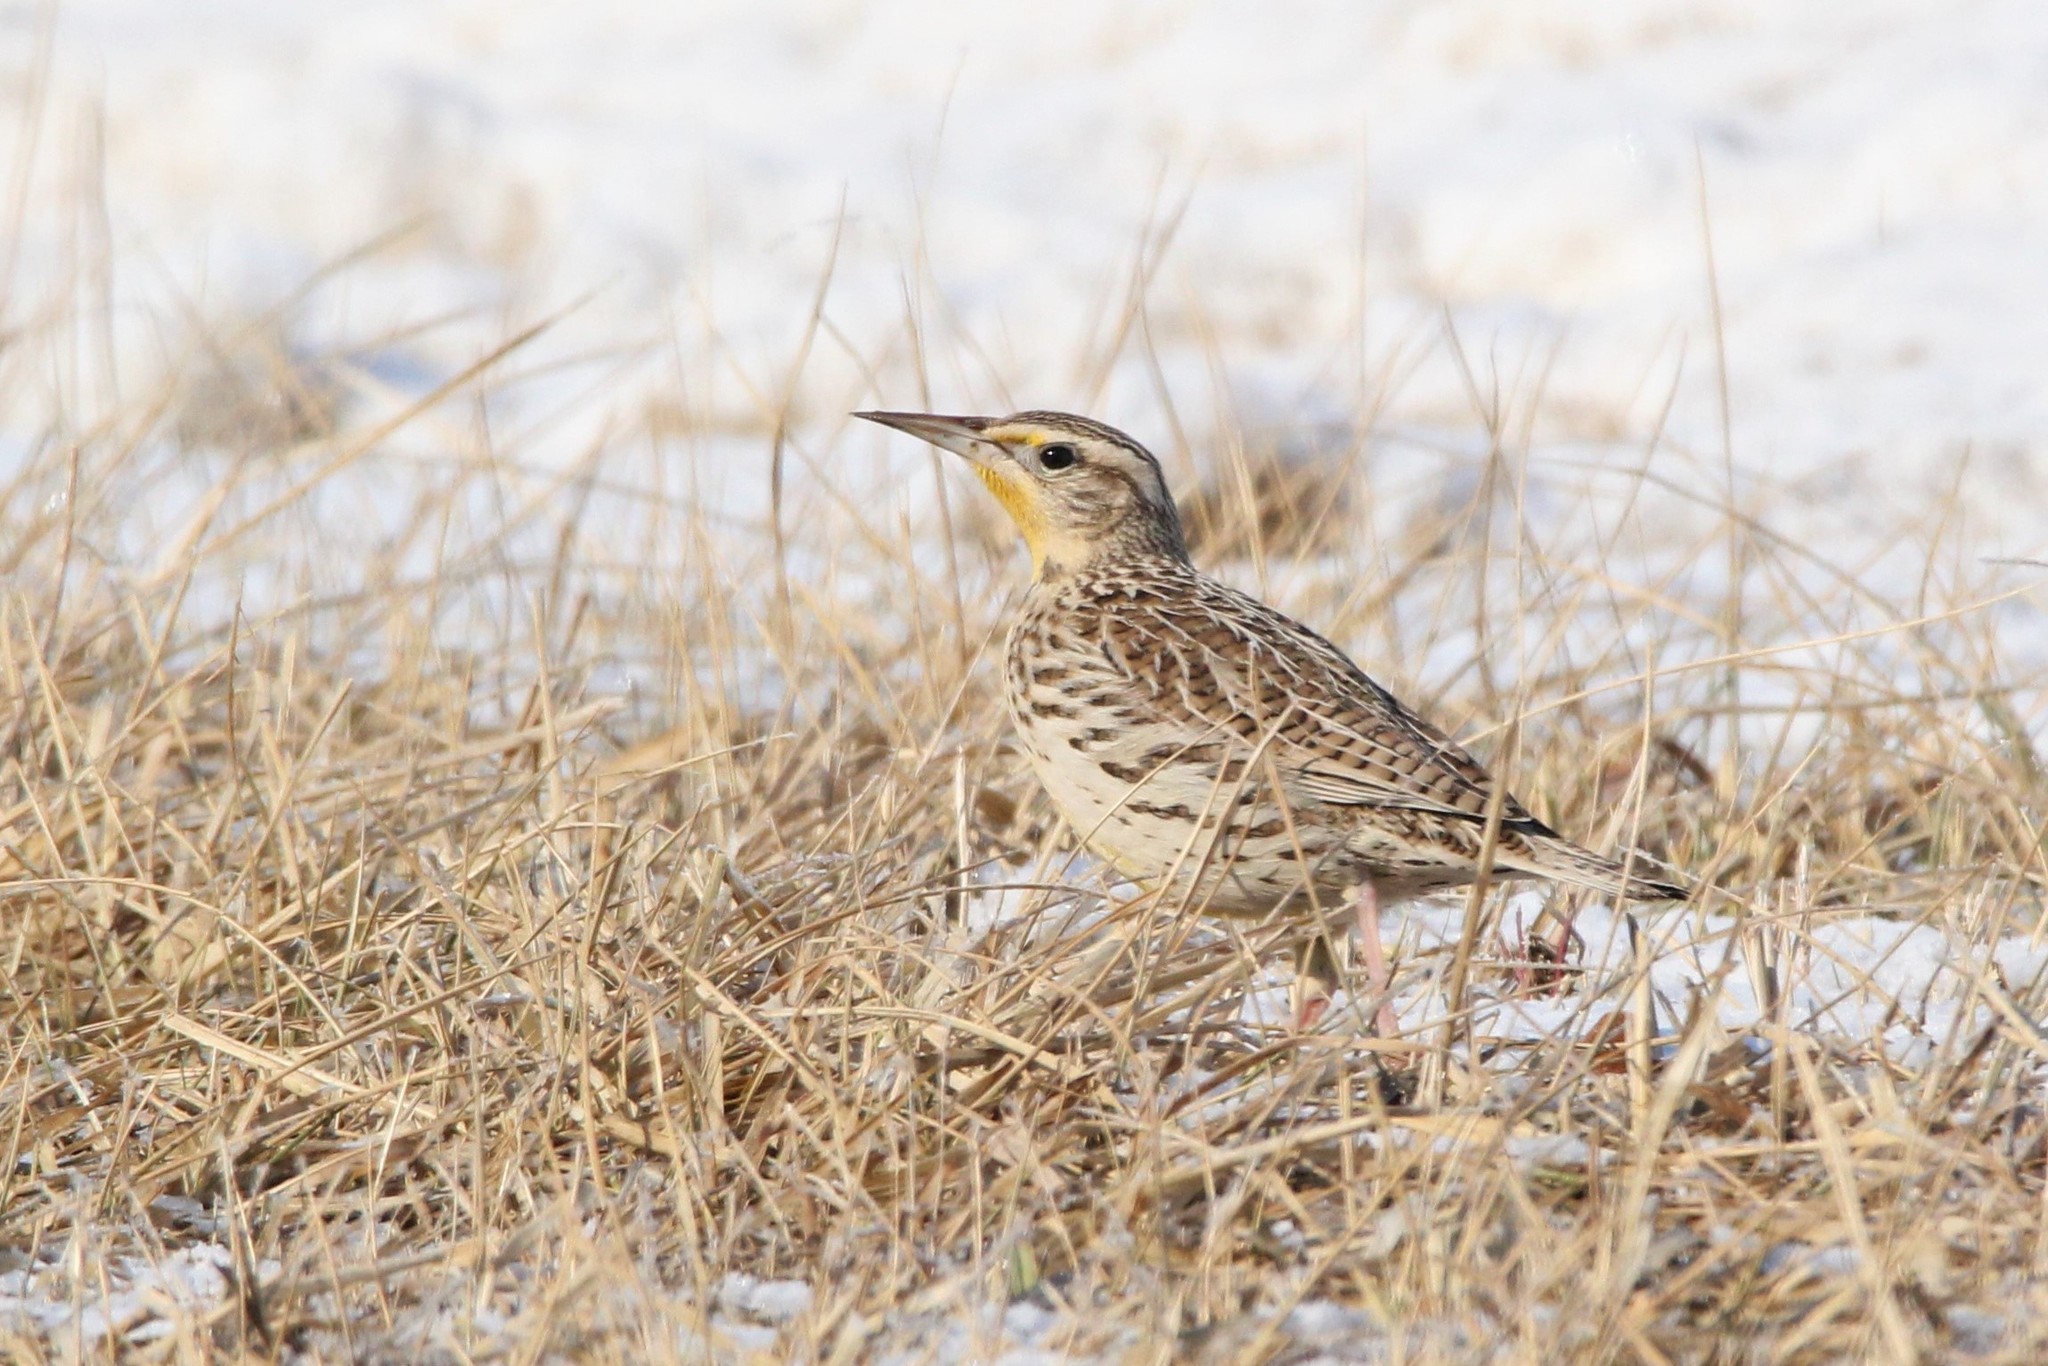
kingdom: Animalia
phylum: Chordata
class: Aves
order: Passeriformes
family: Icteridae
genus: Sturnella
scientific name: Sturnella neglecta
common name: Western meadowlark
